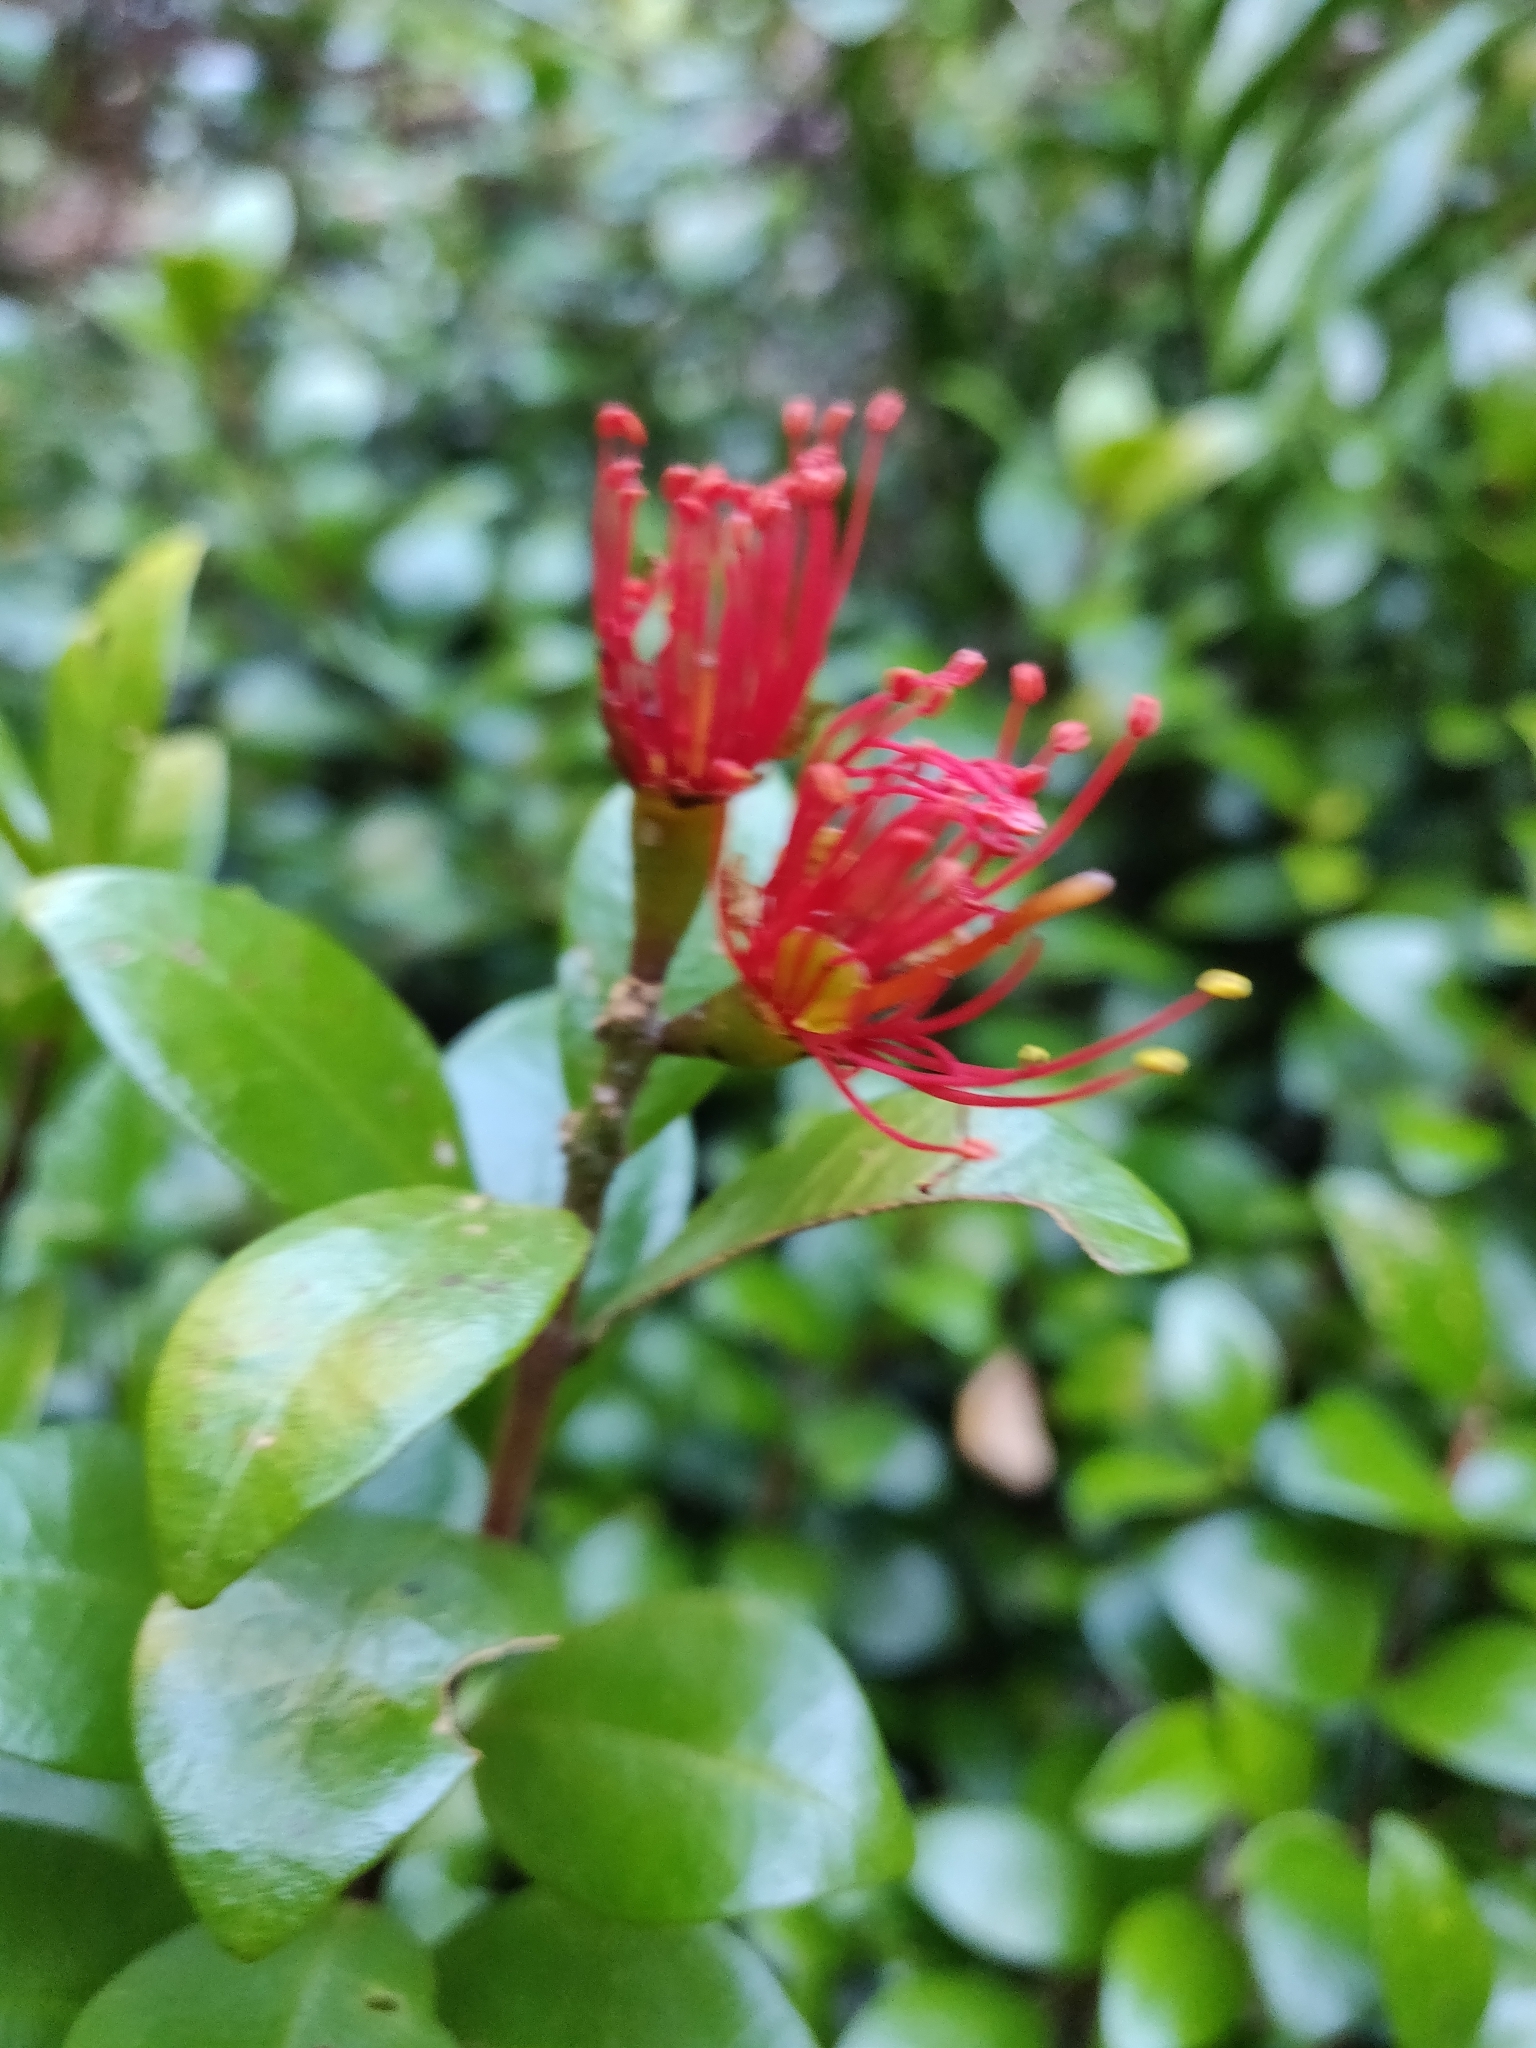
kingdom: Plantae
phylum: Tracheophyta
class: Magnoliopsida
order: Myrtales
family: Myrtaceae
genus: Metrosideros
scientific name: Metrosideros fulgens
